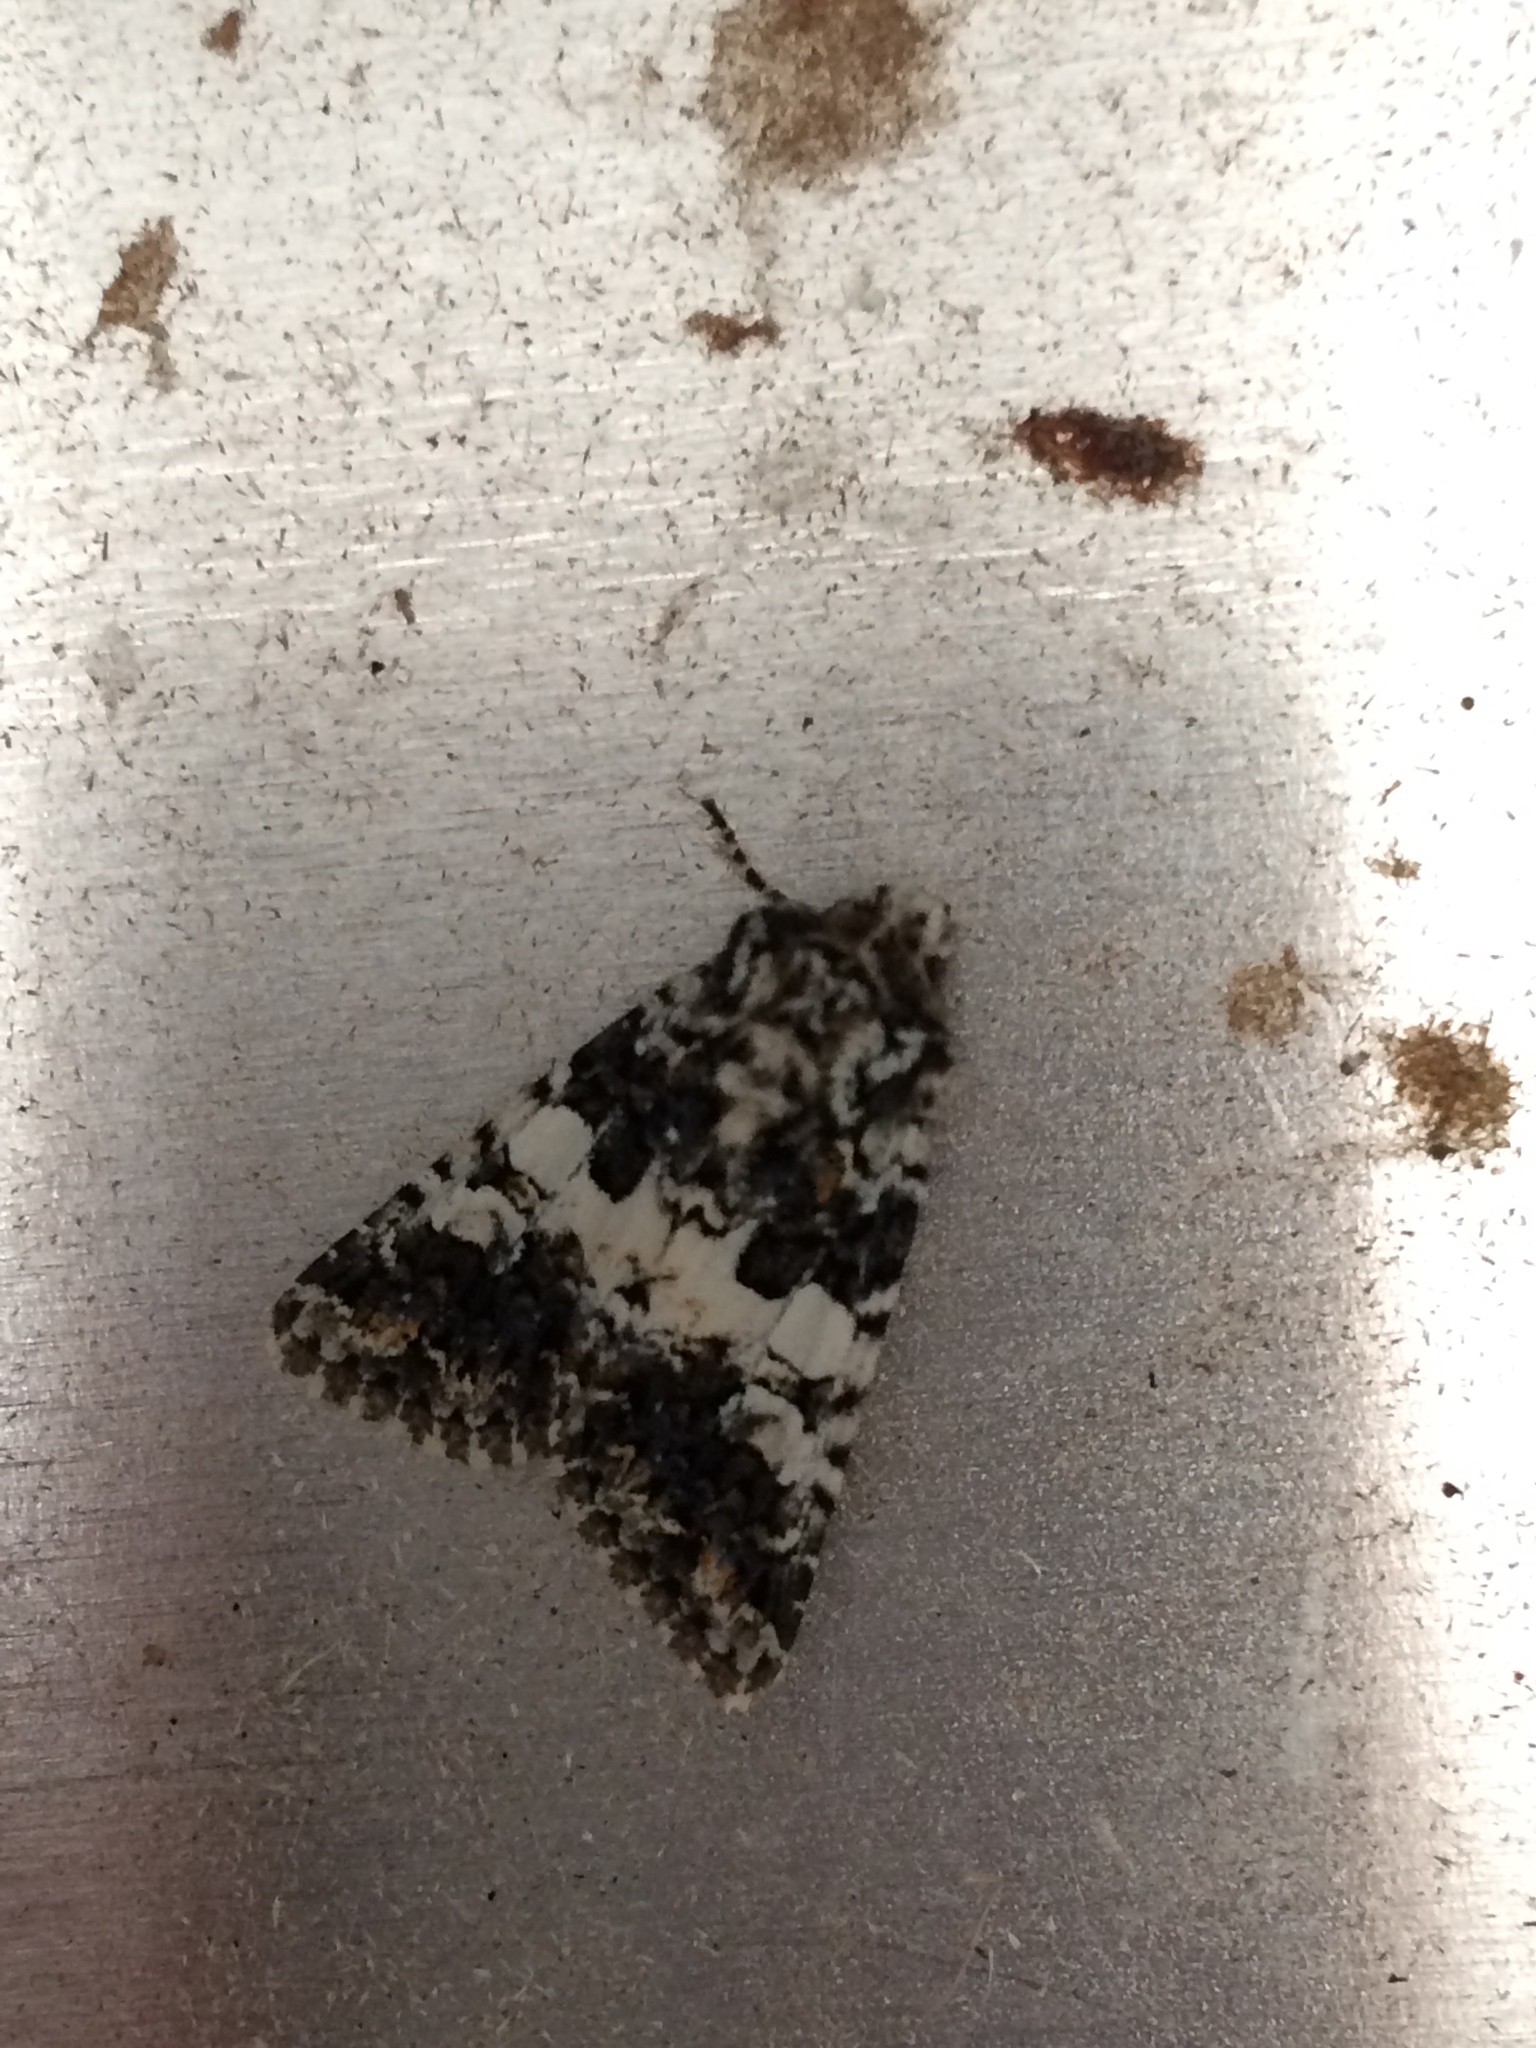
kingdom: Animalia
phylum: Arthropoda
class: Insecta
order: Lepidoptera
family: Noctuidae
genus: Hadena
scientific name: Hadena compta
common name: Varied coronet
